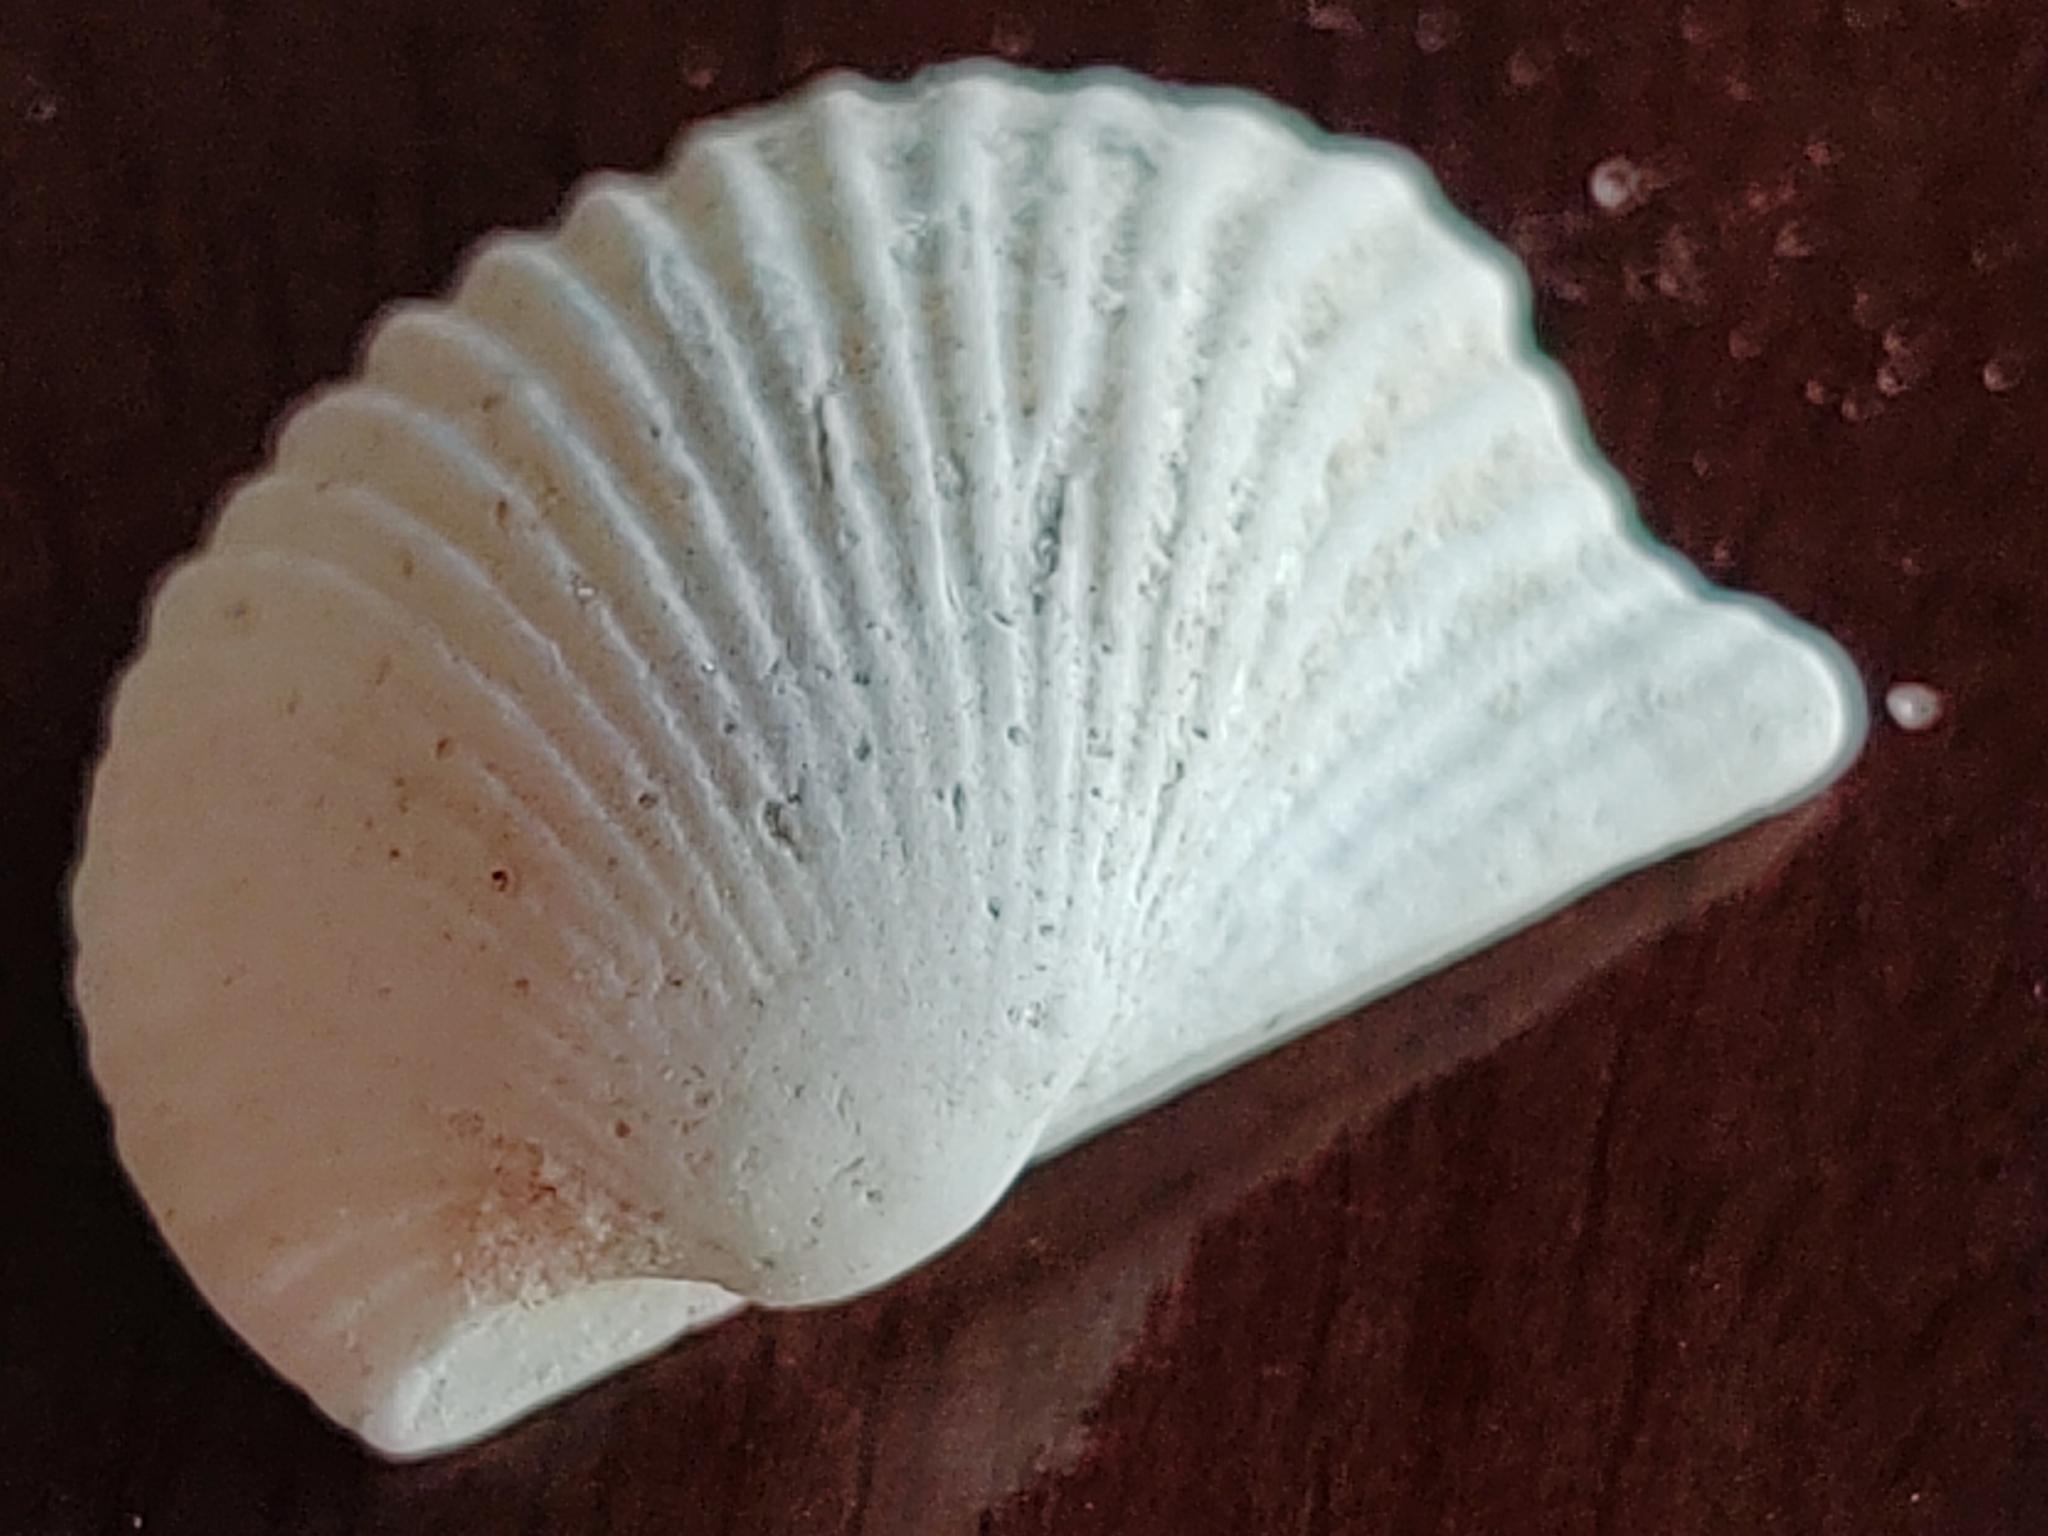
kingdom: Animalia
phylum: Mollusca
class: Bivalvia
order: Arcida
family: Arcidae
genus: Anadara
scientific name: Anadara notabilis
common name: Eared ark
